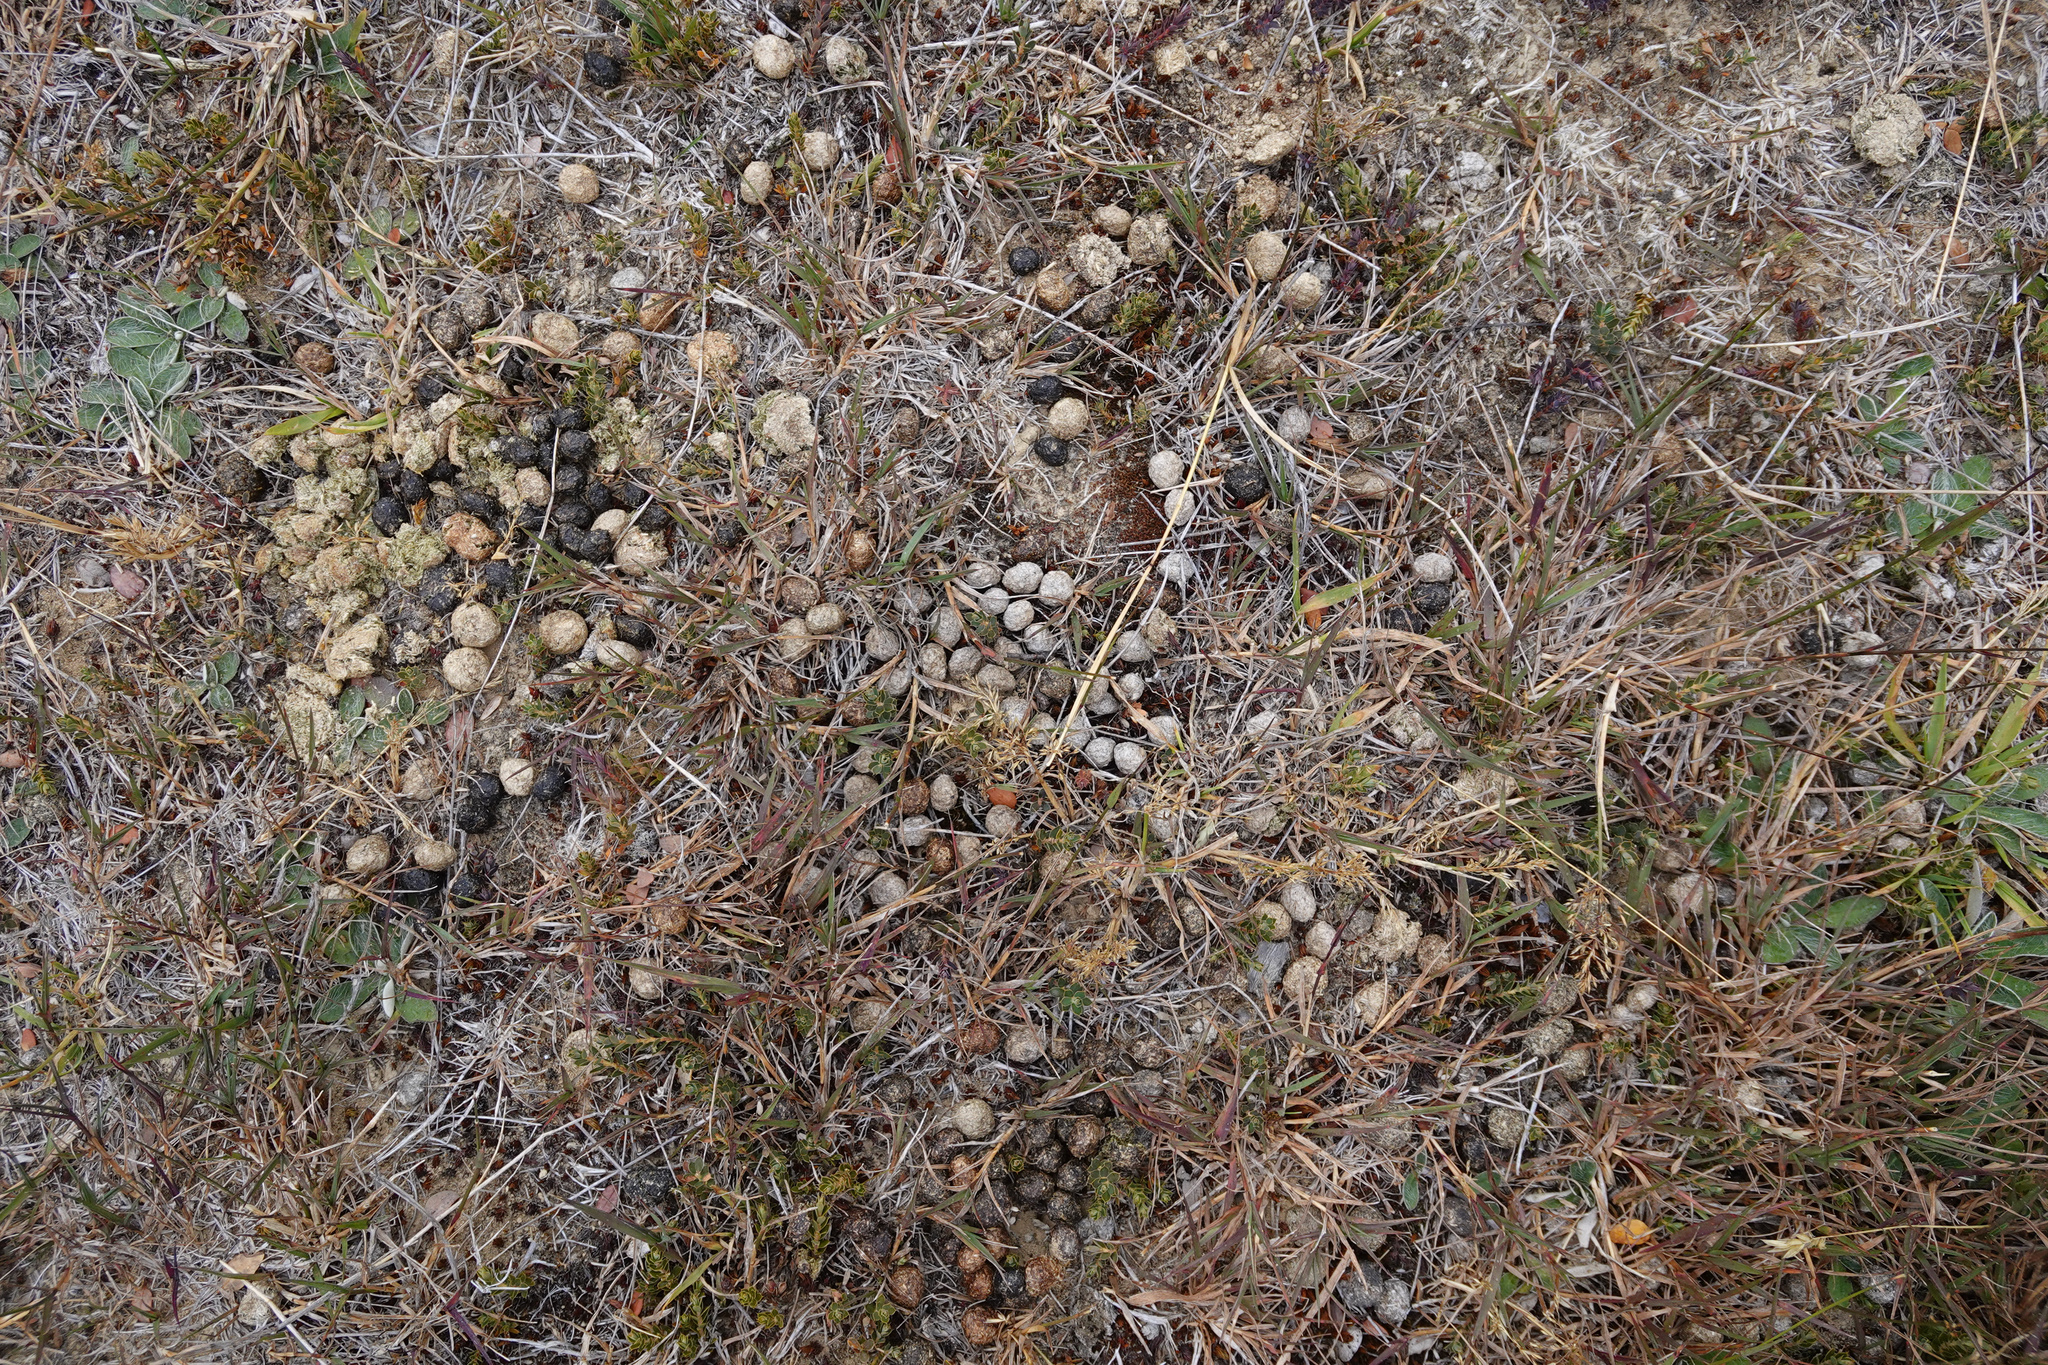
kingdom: Animalia
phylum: Chordata
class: Mammalia
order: Lagomorpha
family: Leporidae
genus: Oryctolagus
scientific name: Oryctolagus cuniculus
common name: European rabbit
